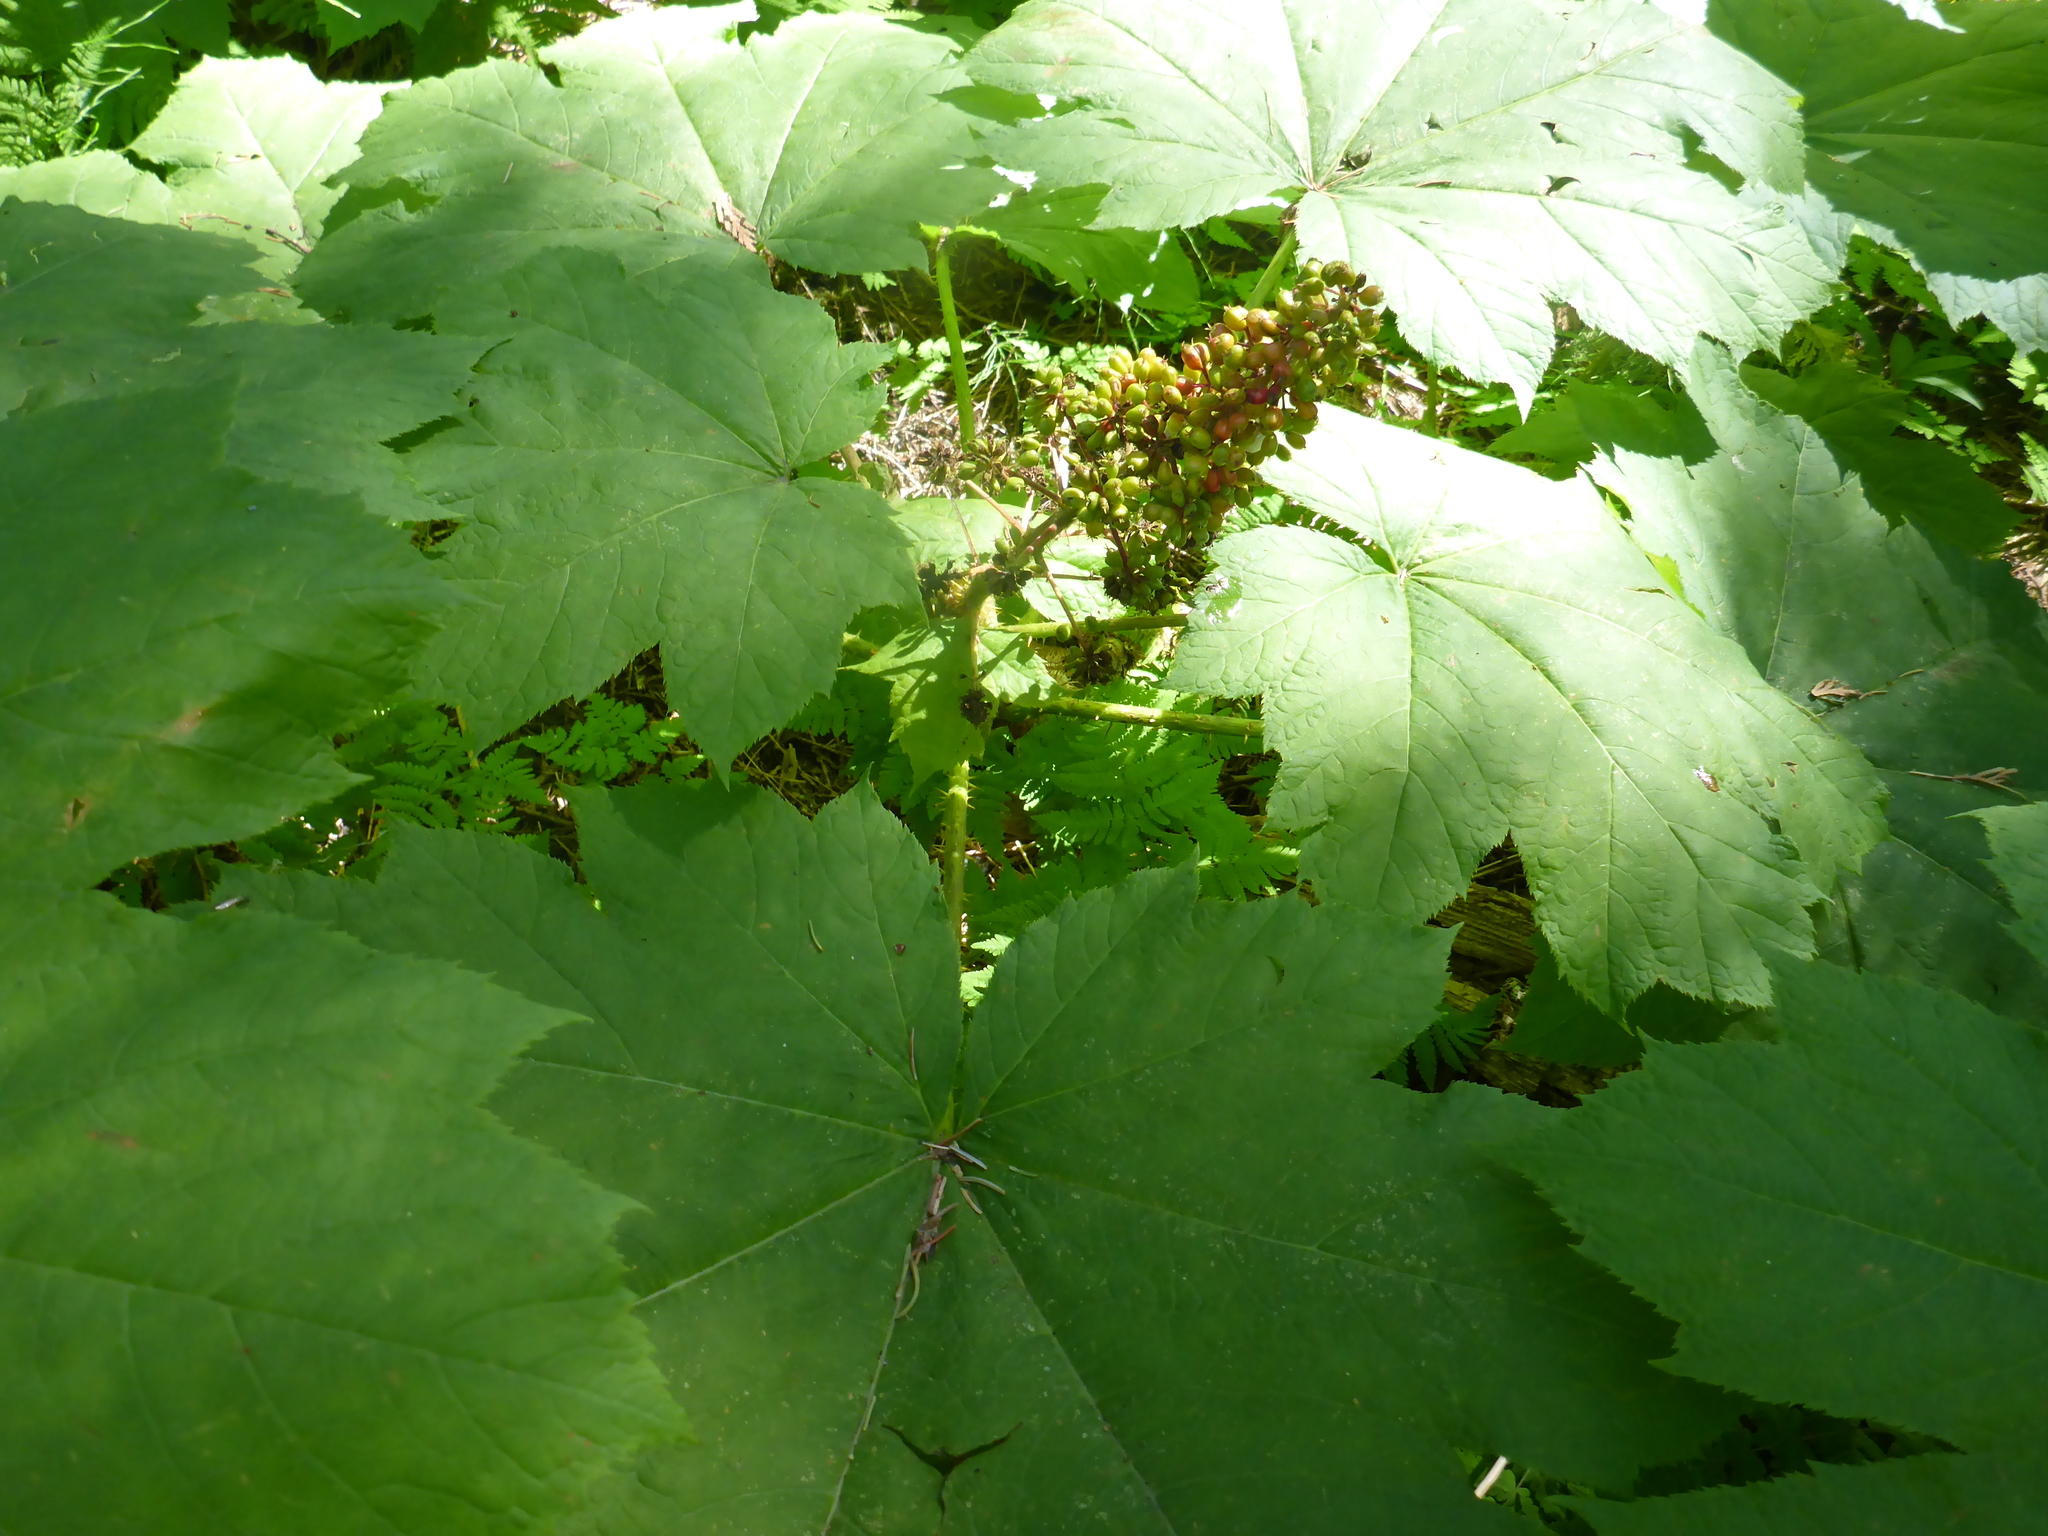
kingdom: Plantae
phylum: Tracheophyta
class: Magnoliopsida
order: Apiales
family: Araliaceae
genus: Oplopanax
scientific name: Oplopanax horridus
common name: Devil's walking-stick
